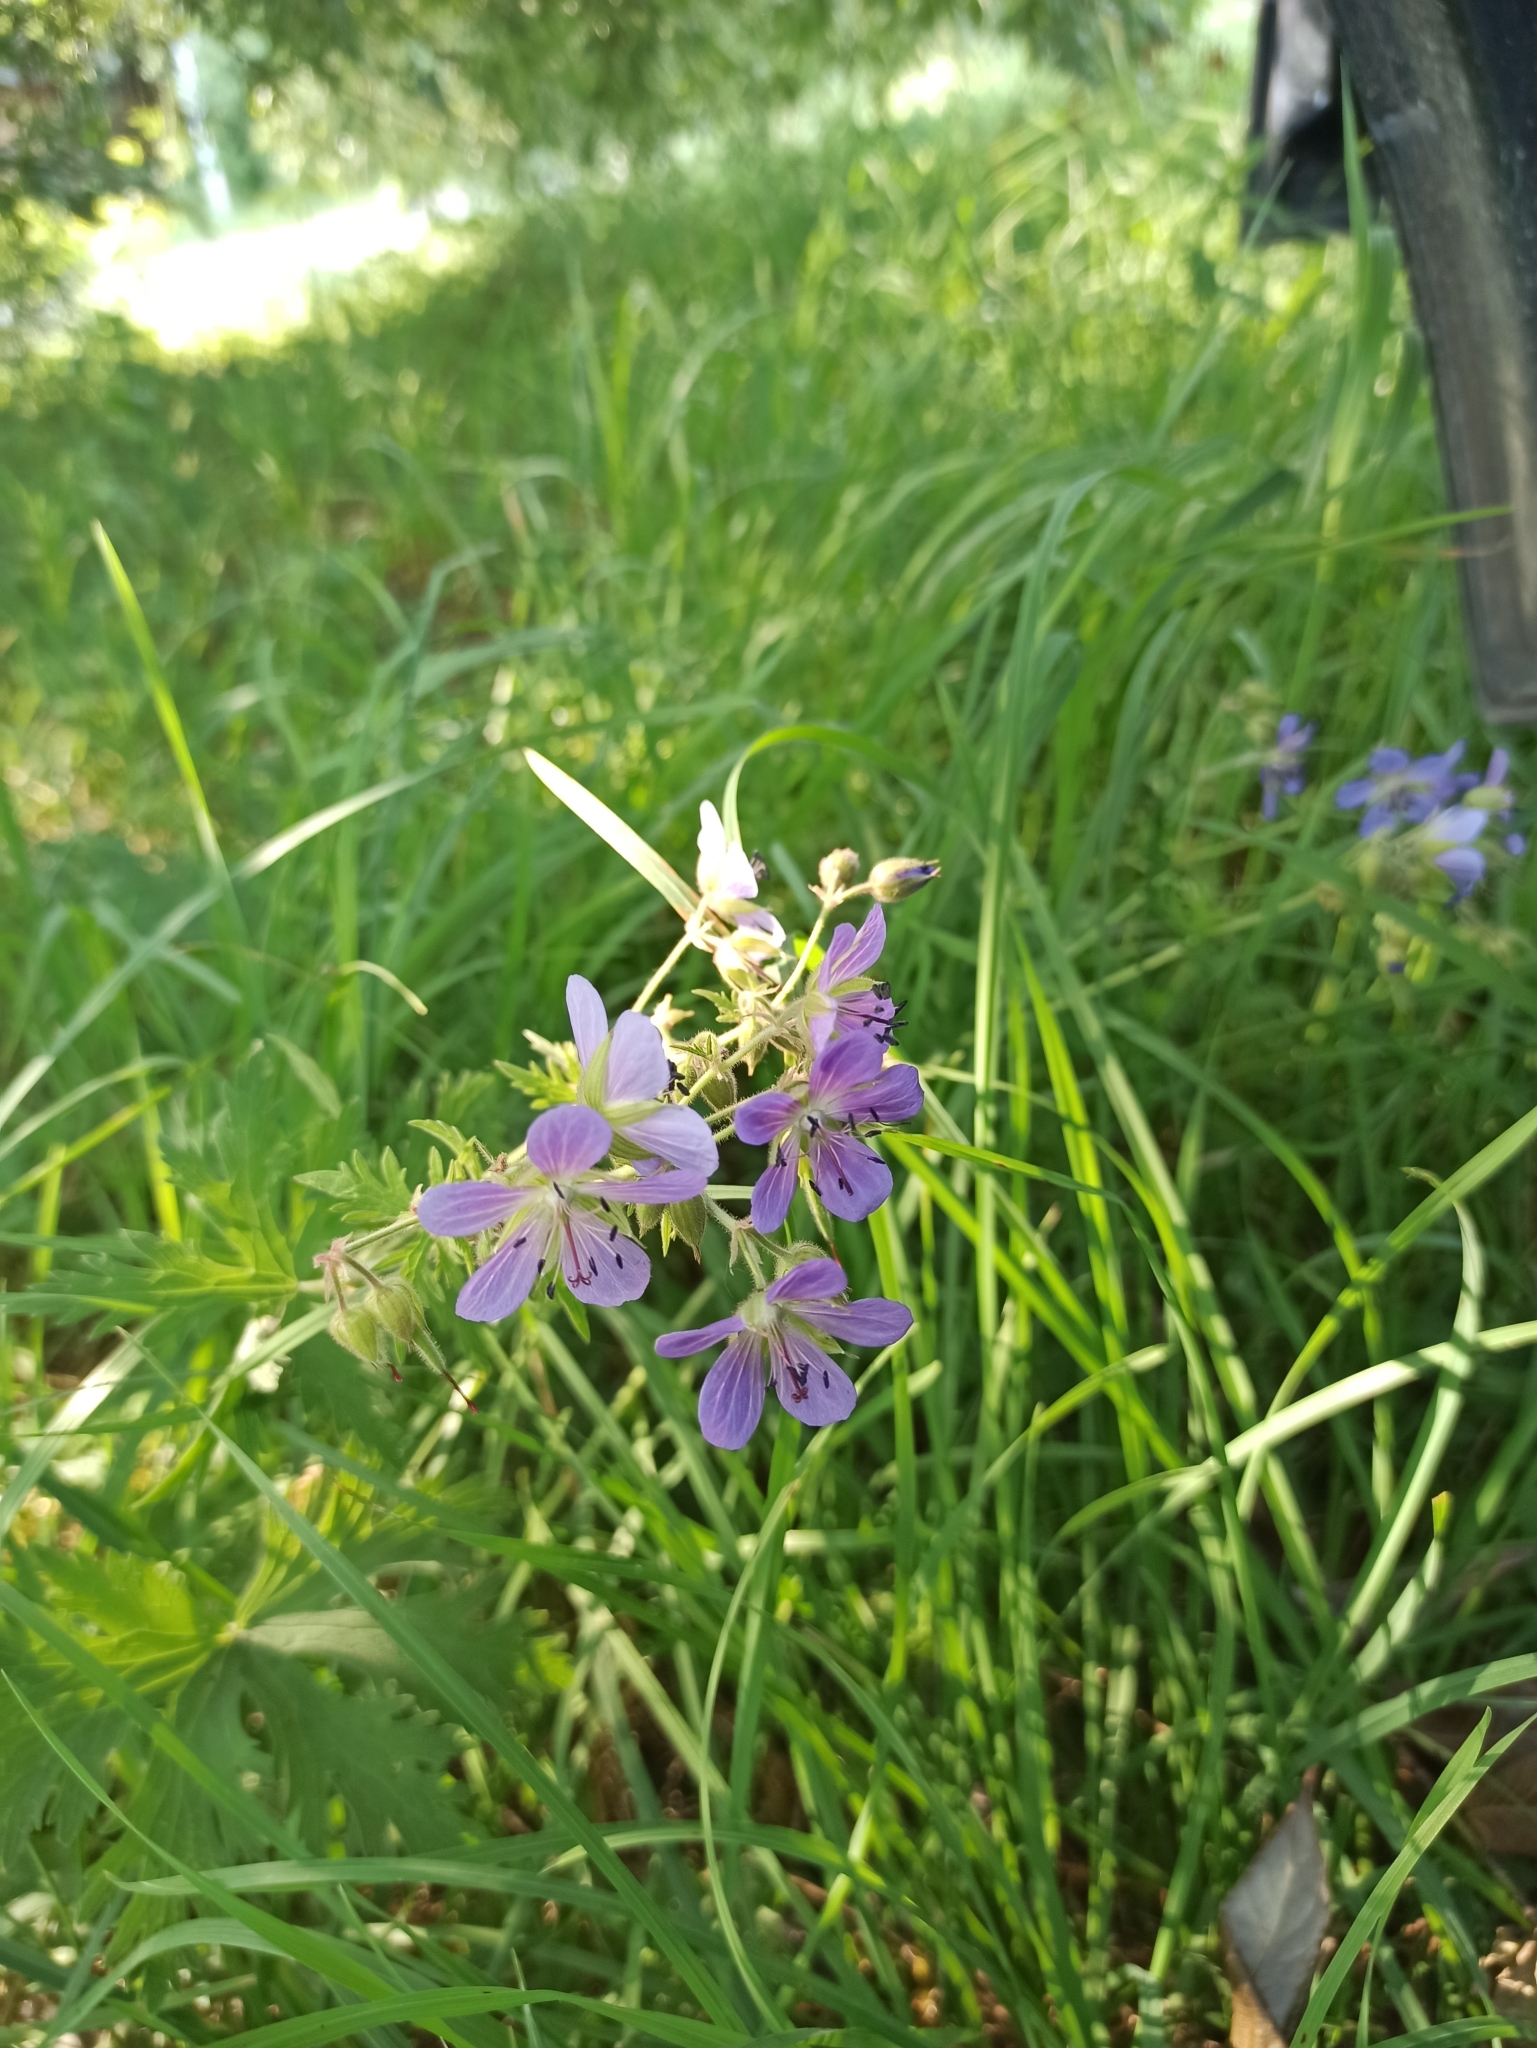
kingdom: Plantae
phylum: Tracheophyta
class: Magnoliopsida
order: Geraniales
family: Geraniaceae
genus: Geranium
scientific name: Geranium pratense
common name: Meadow crane's-bill
